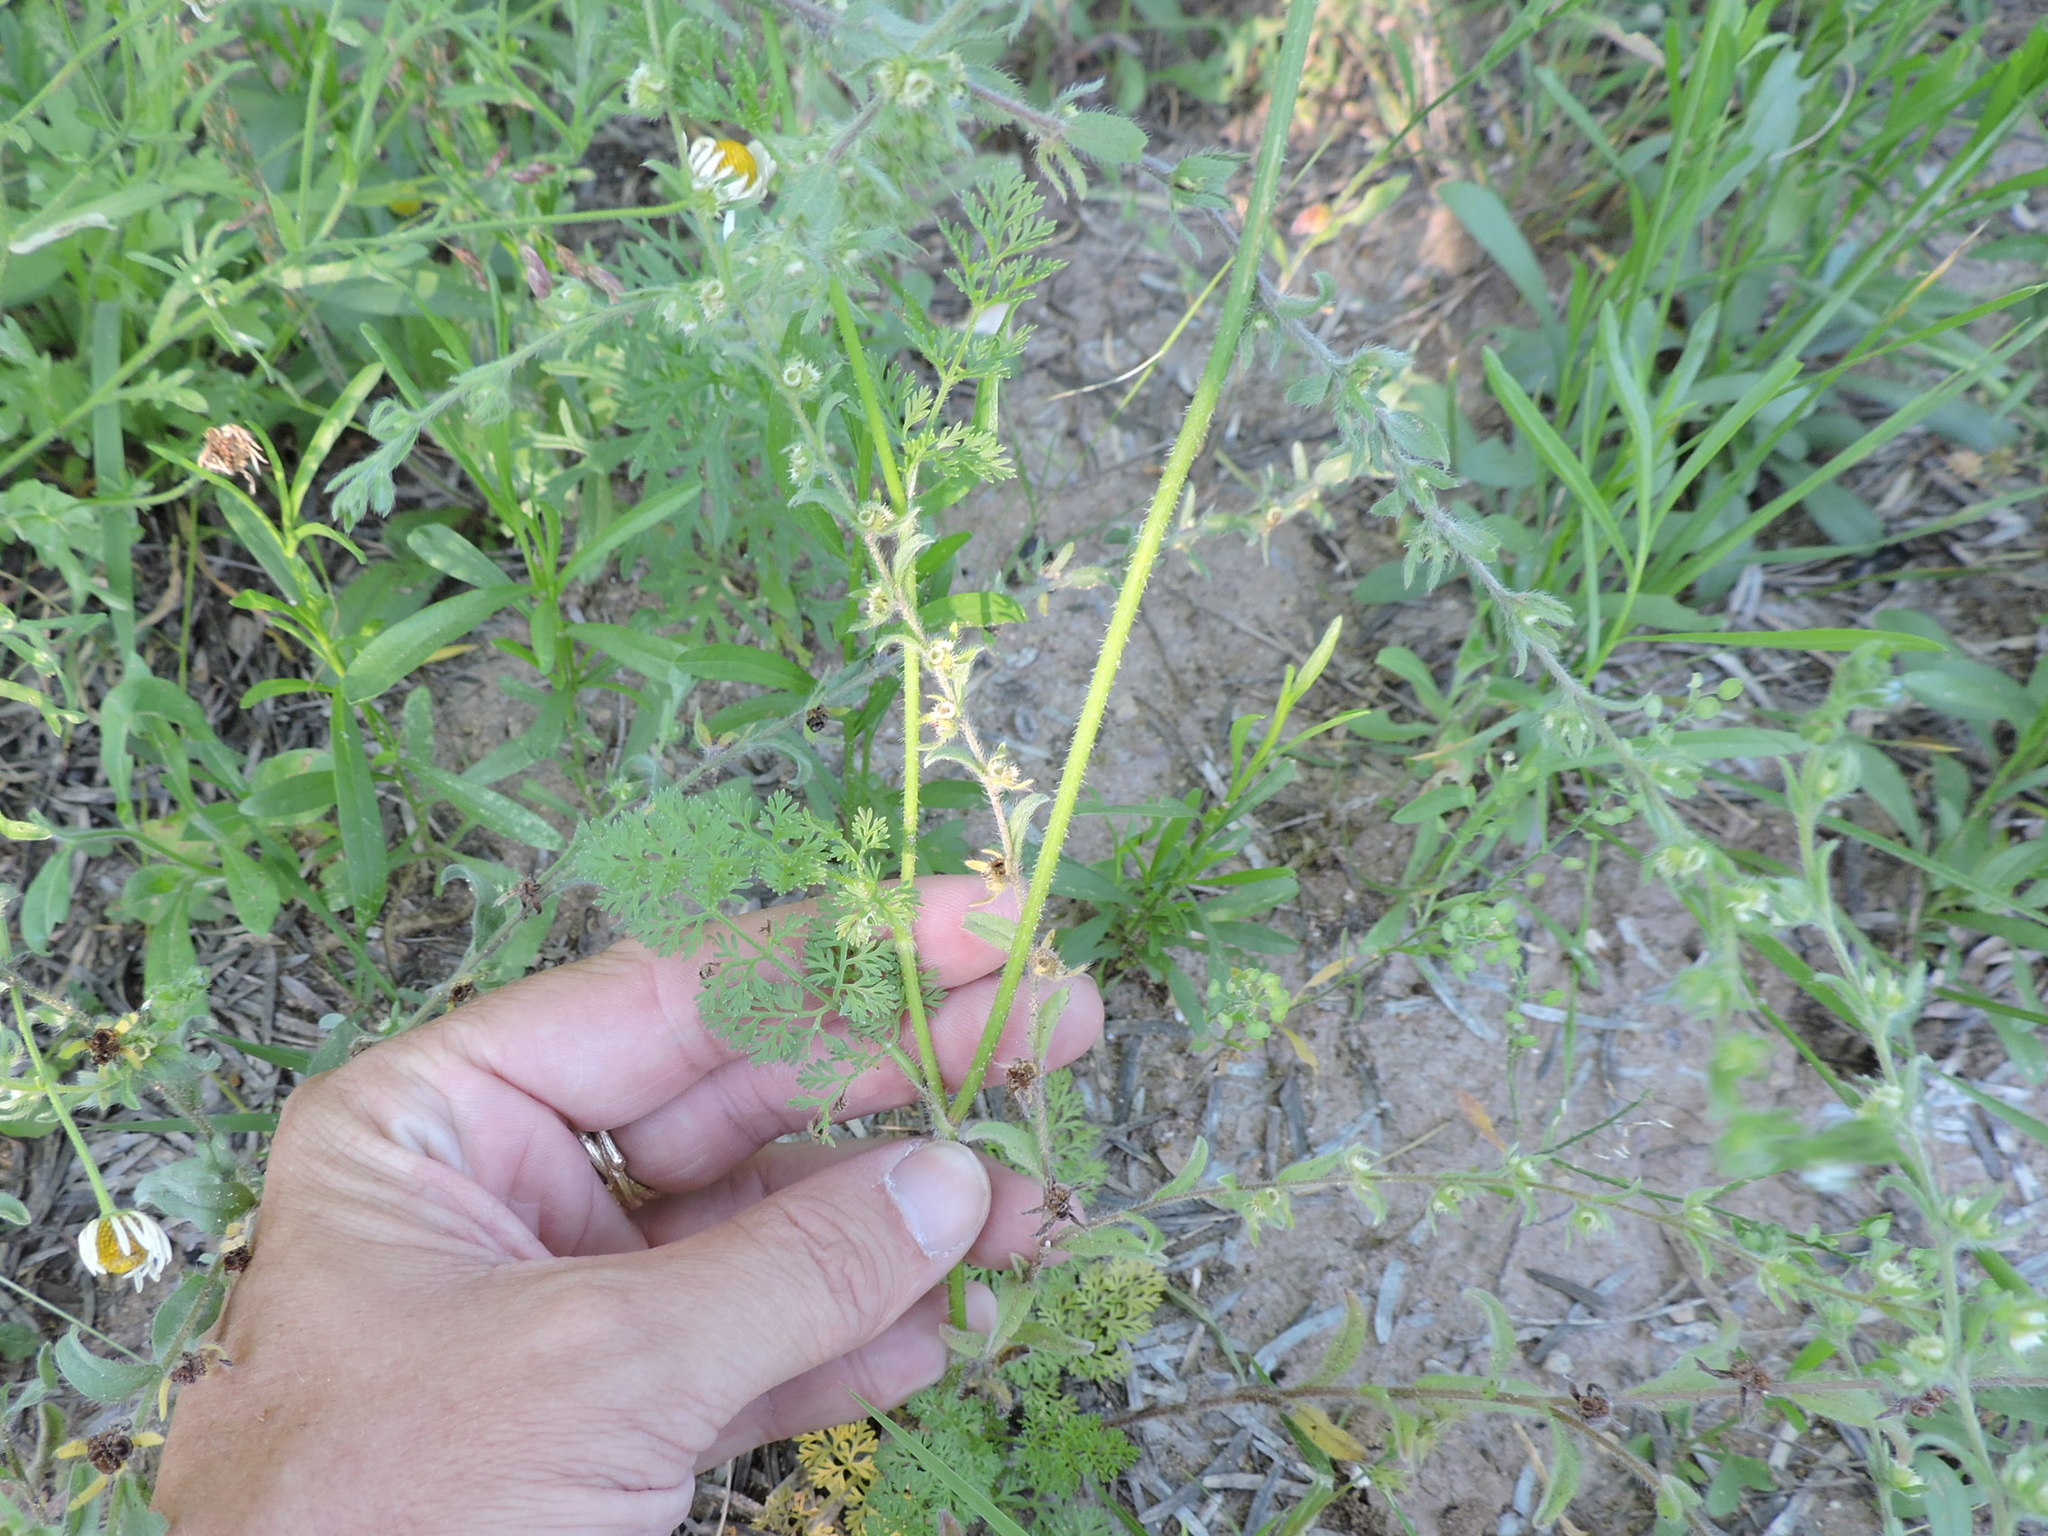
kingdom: Plantae
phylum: Tracheophyta
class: Magnoliopsida
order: Apiales
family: Apiaceae
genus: Daucus
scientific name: Daucus pusillus
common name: Southwest wild carrot
